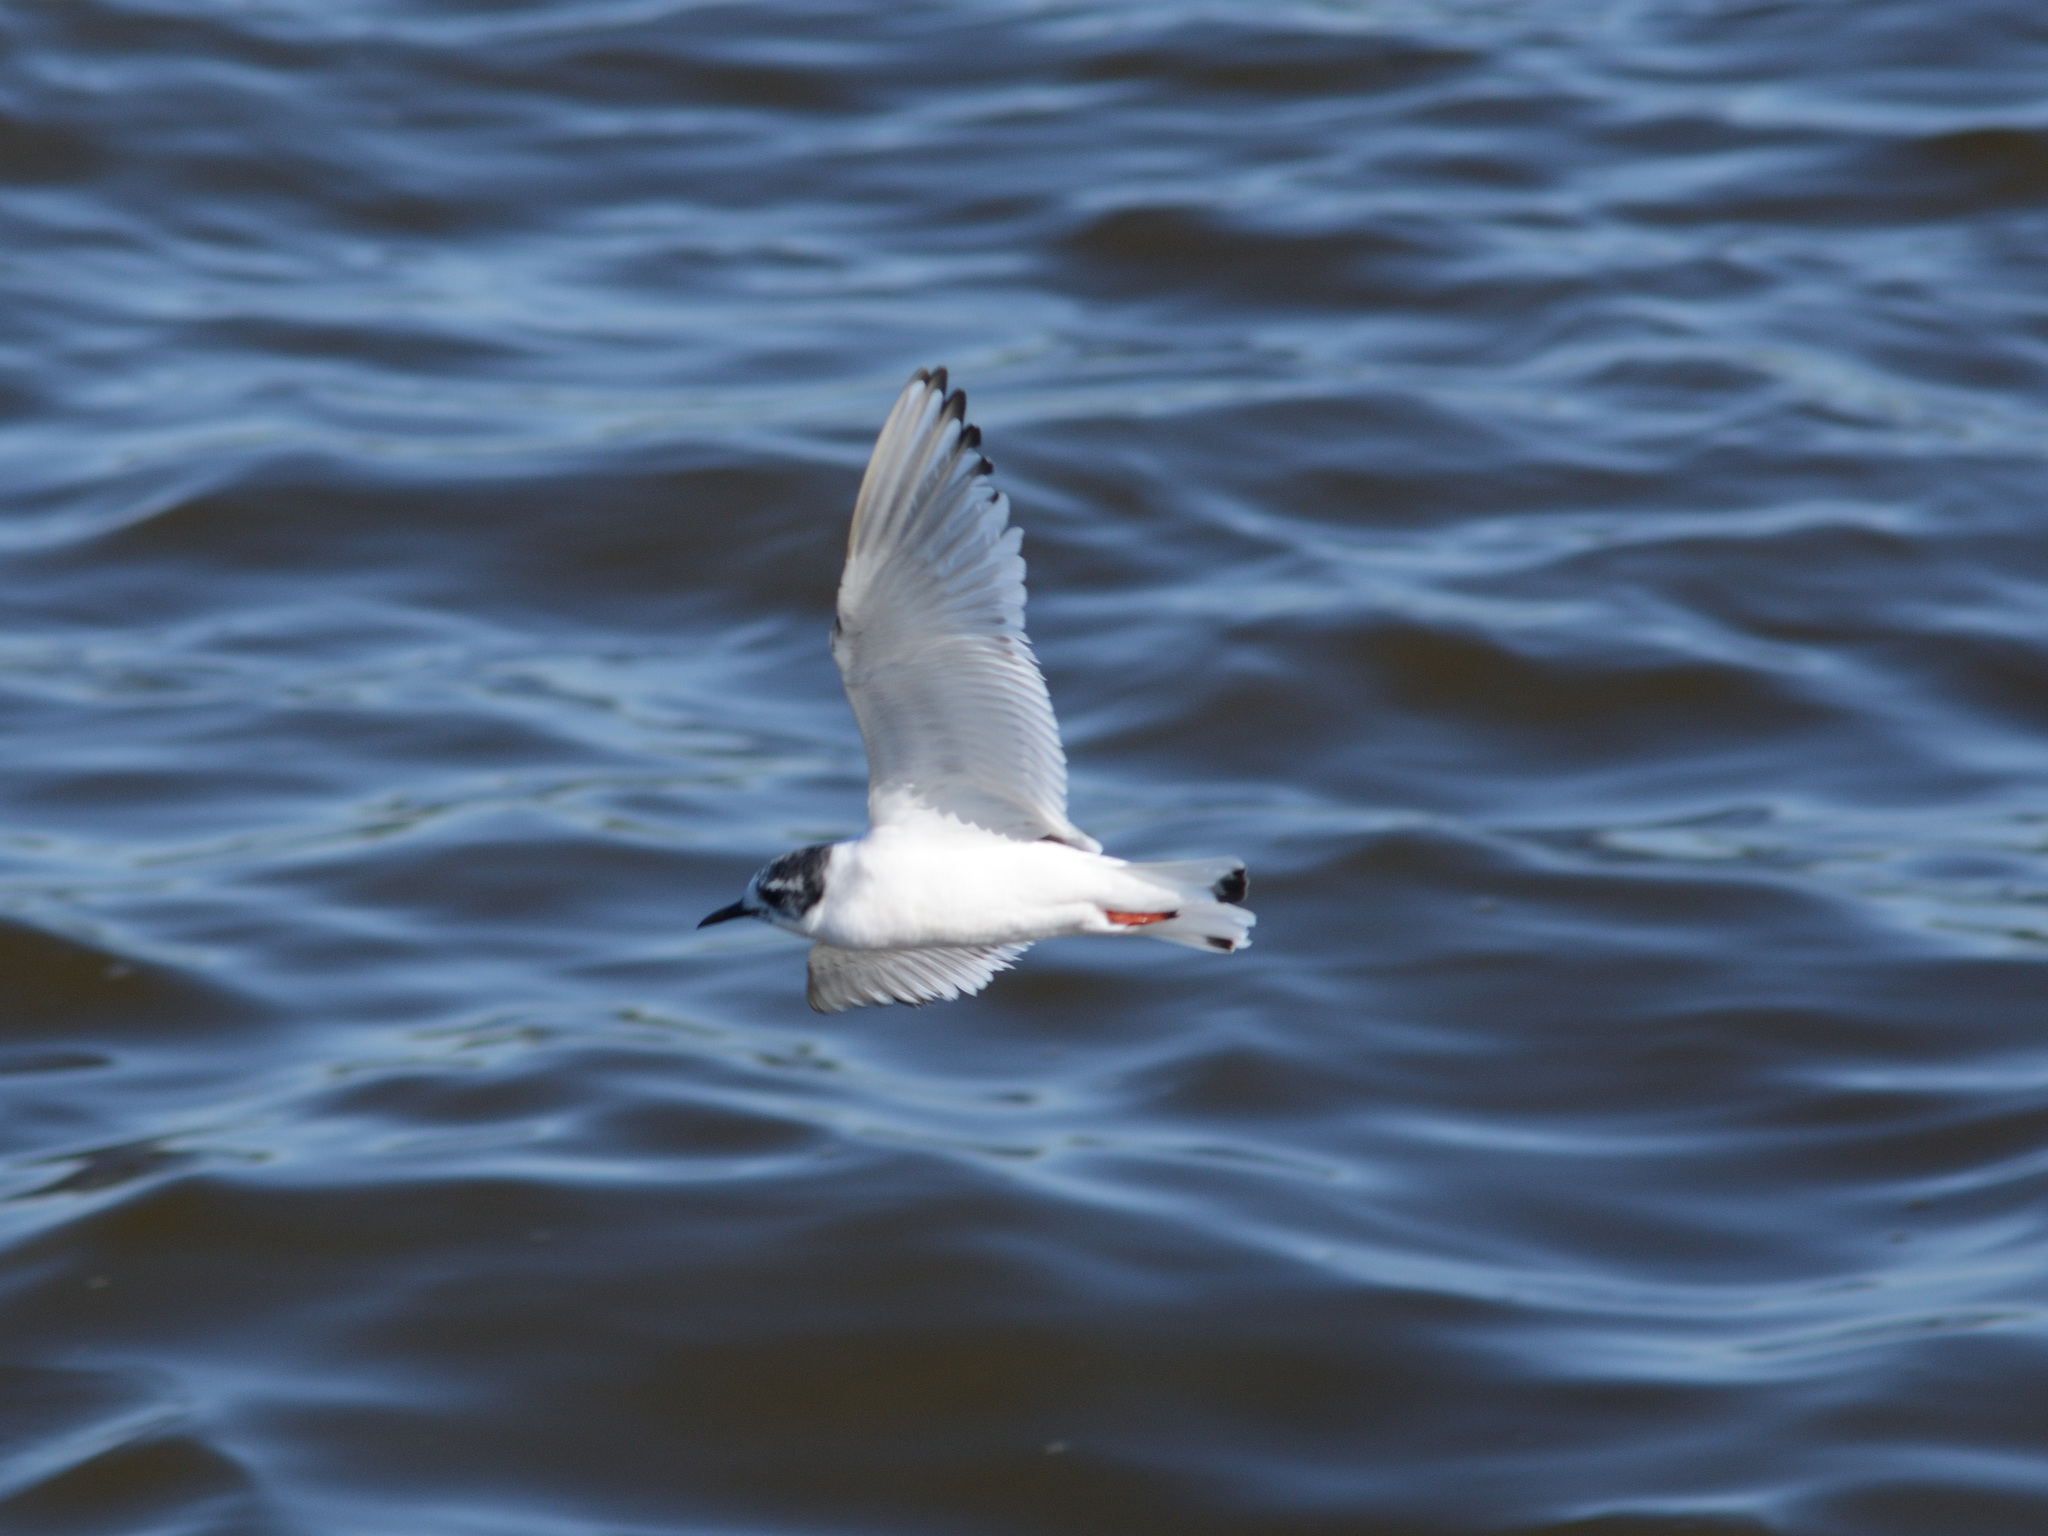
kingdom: Animalia
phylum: Chordata
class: Aves
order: Charadriiformes
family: Laridae
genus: Hydrocoloeus
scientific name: Hydrocoloeus minutus
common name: Little gull
